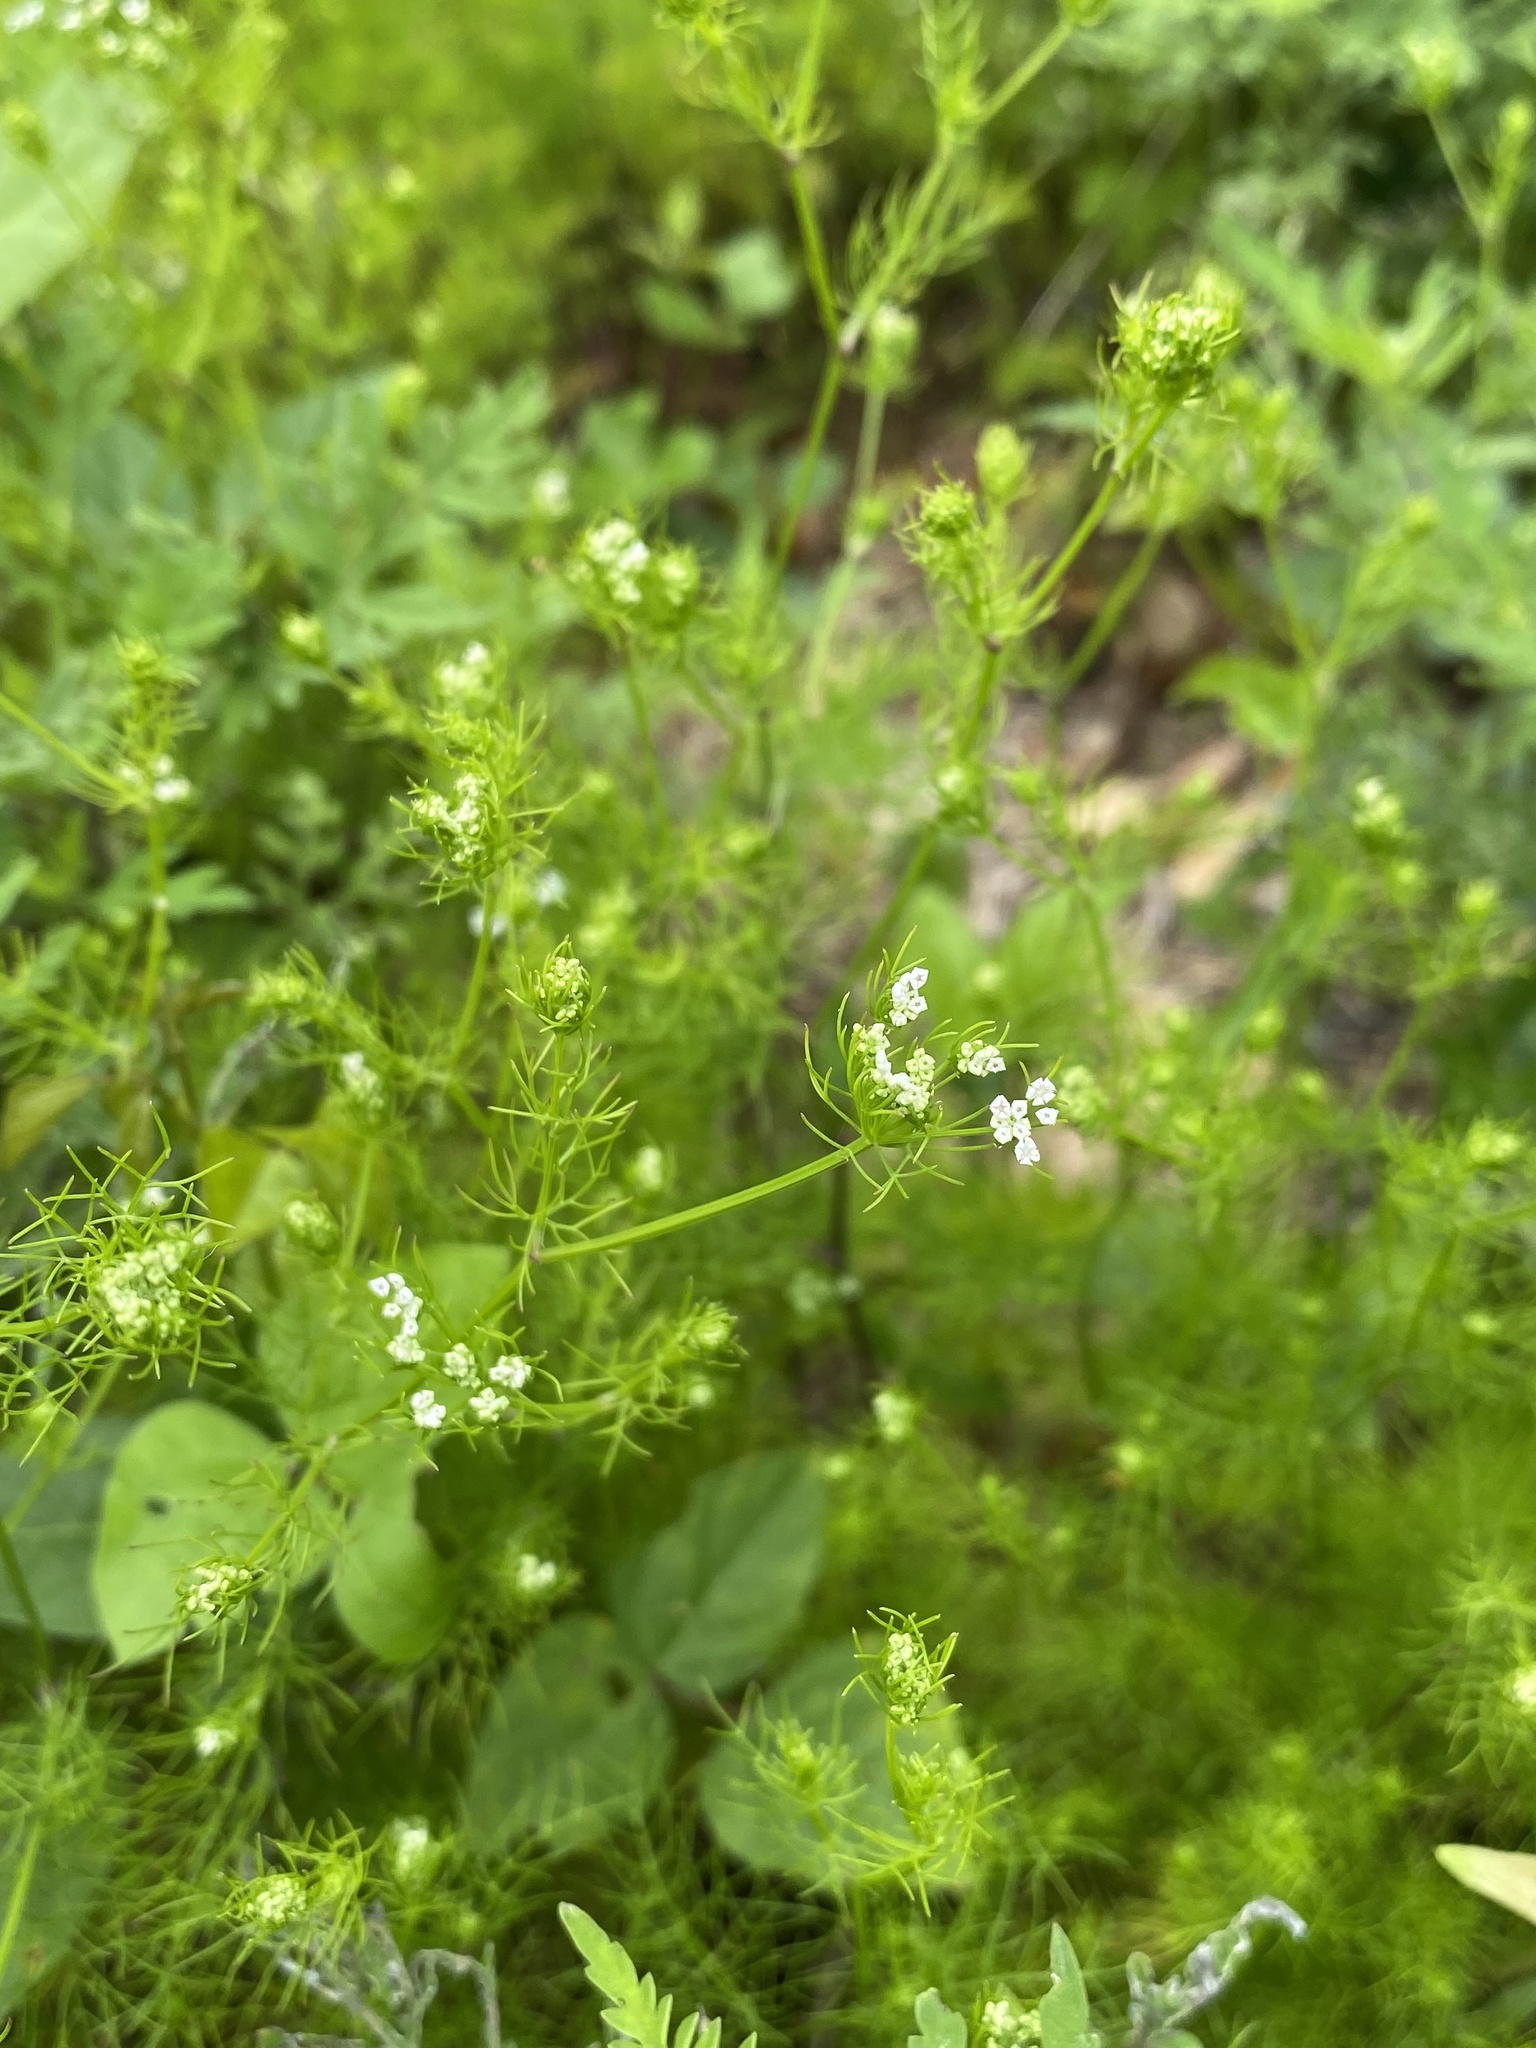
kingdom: Plantae
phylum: Tracheophyta
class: Magnoliopsida
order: Apiales
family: Apiaceae
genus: Ptilimnium
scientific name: Ptilimnium capillaceum
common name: Herbwilliam
